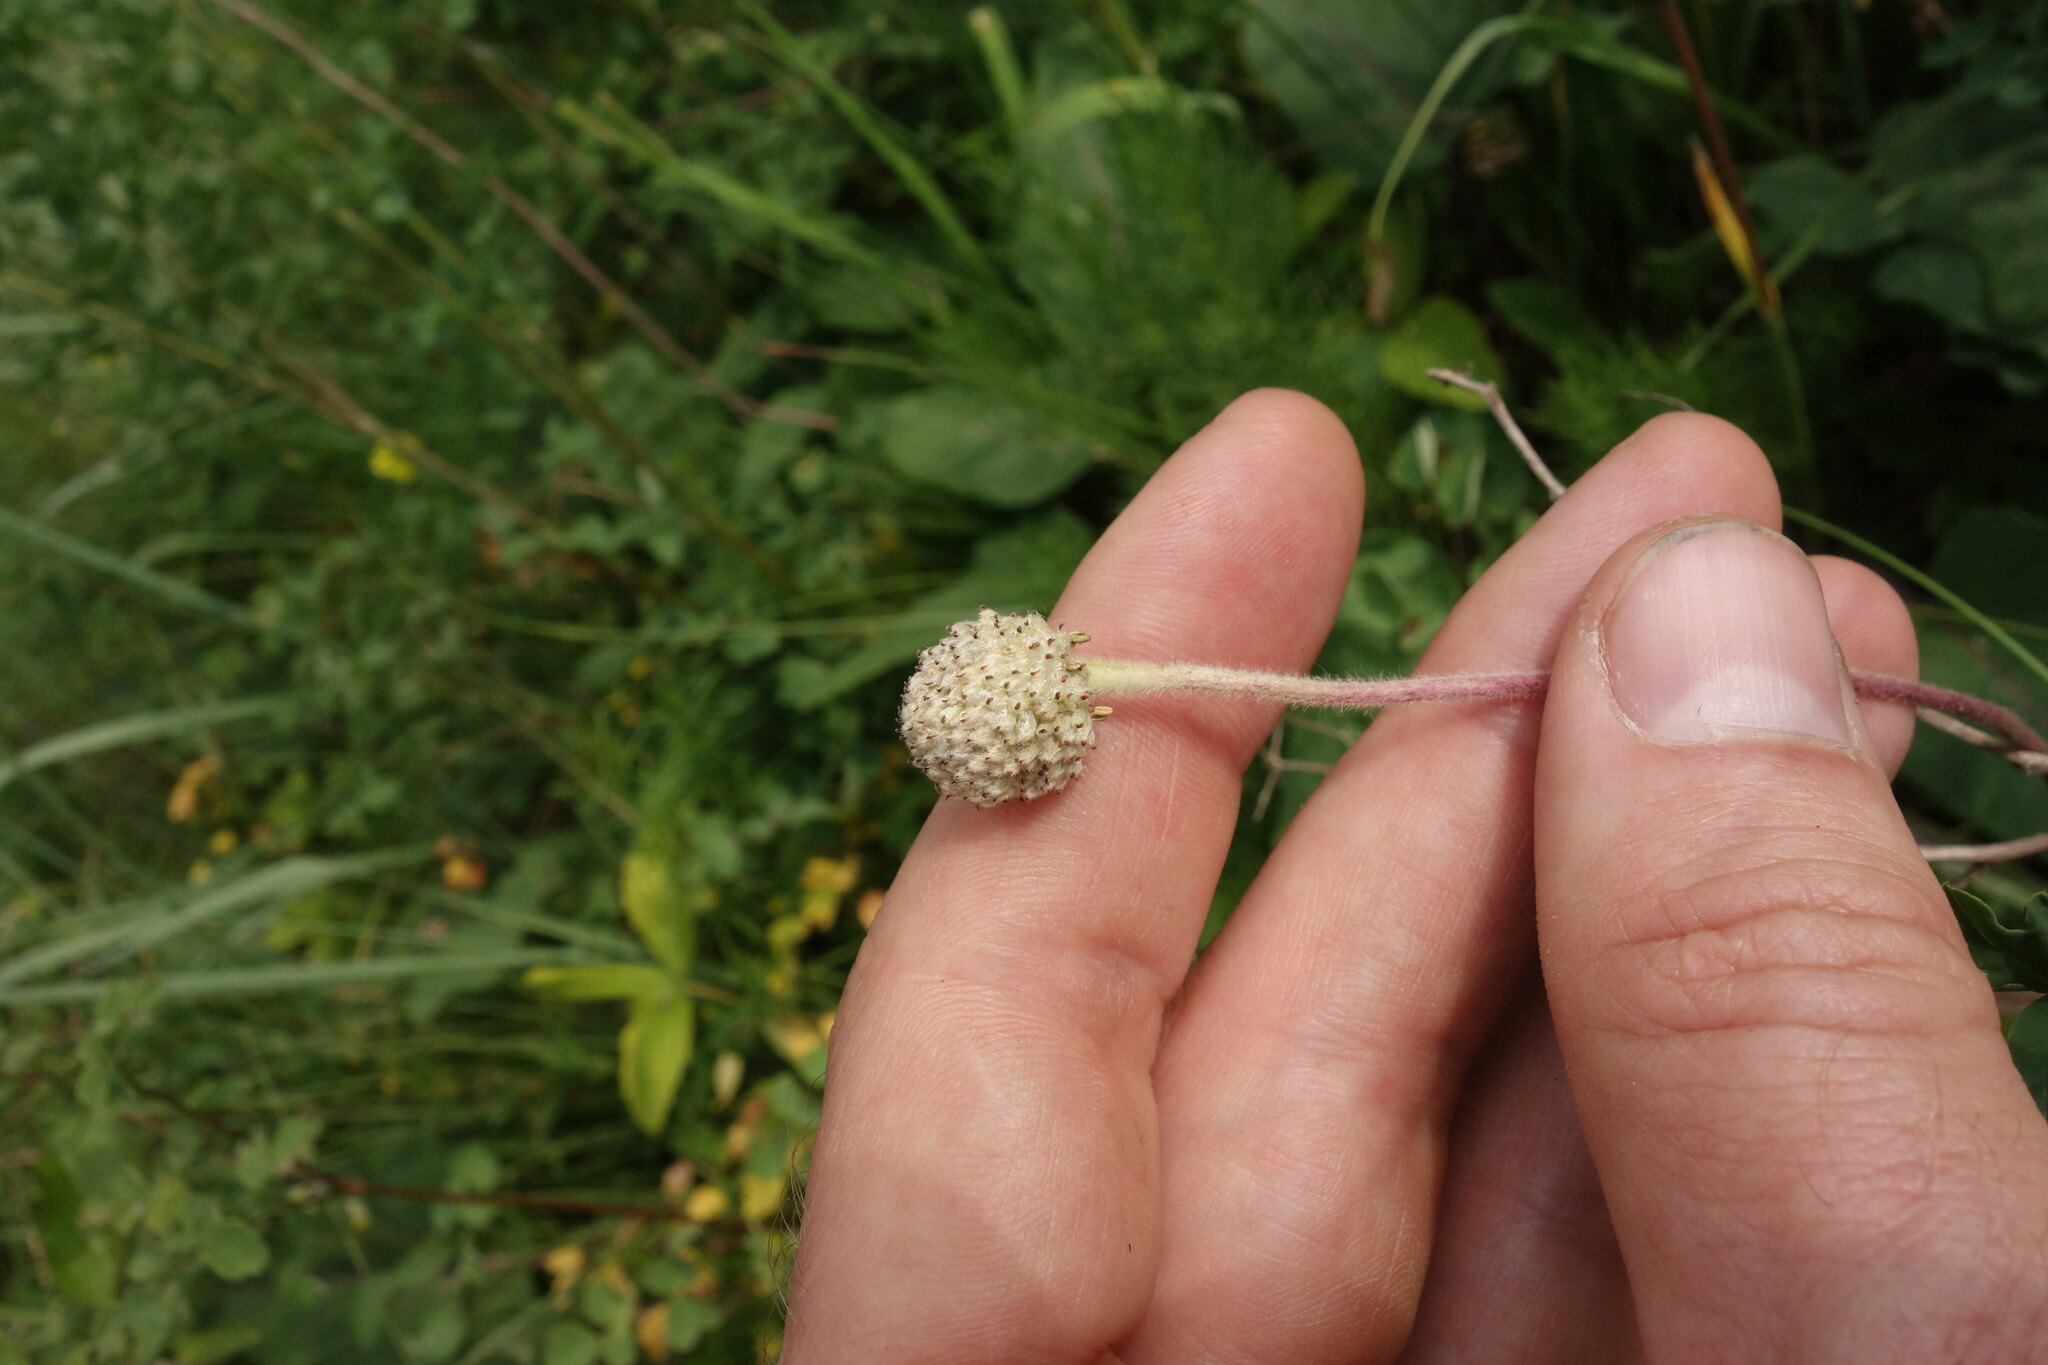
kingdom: Plantae
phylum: Tracheophyta
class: Magnoliopsida
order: Ranunculales
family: Ranunculaceae
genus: Anemone
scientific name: Anemone sylvestris
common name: Snowdrop anemone
